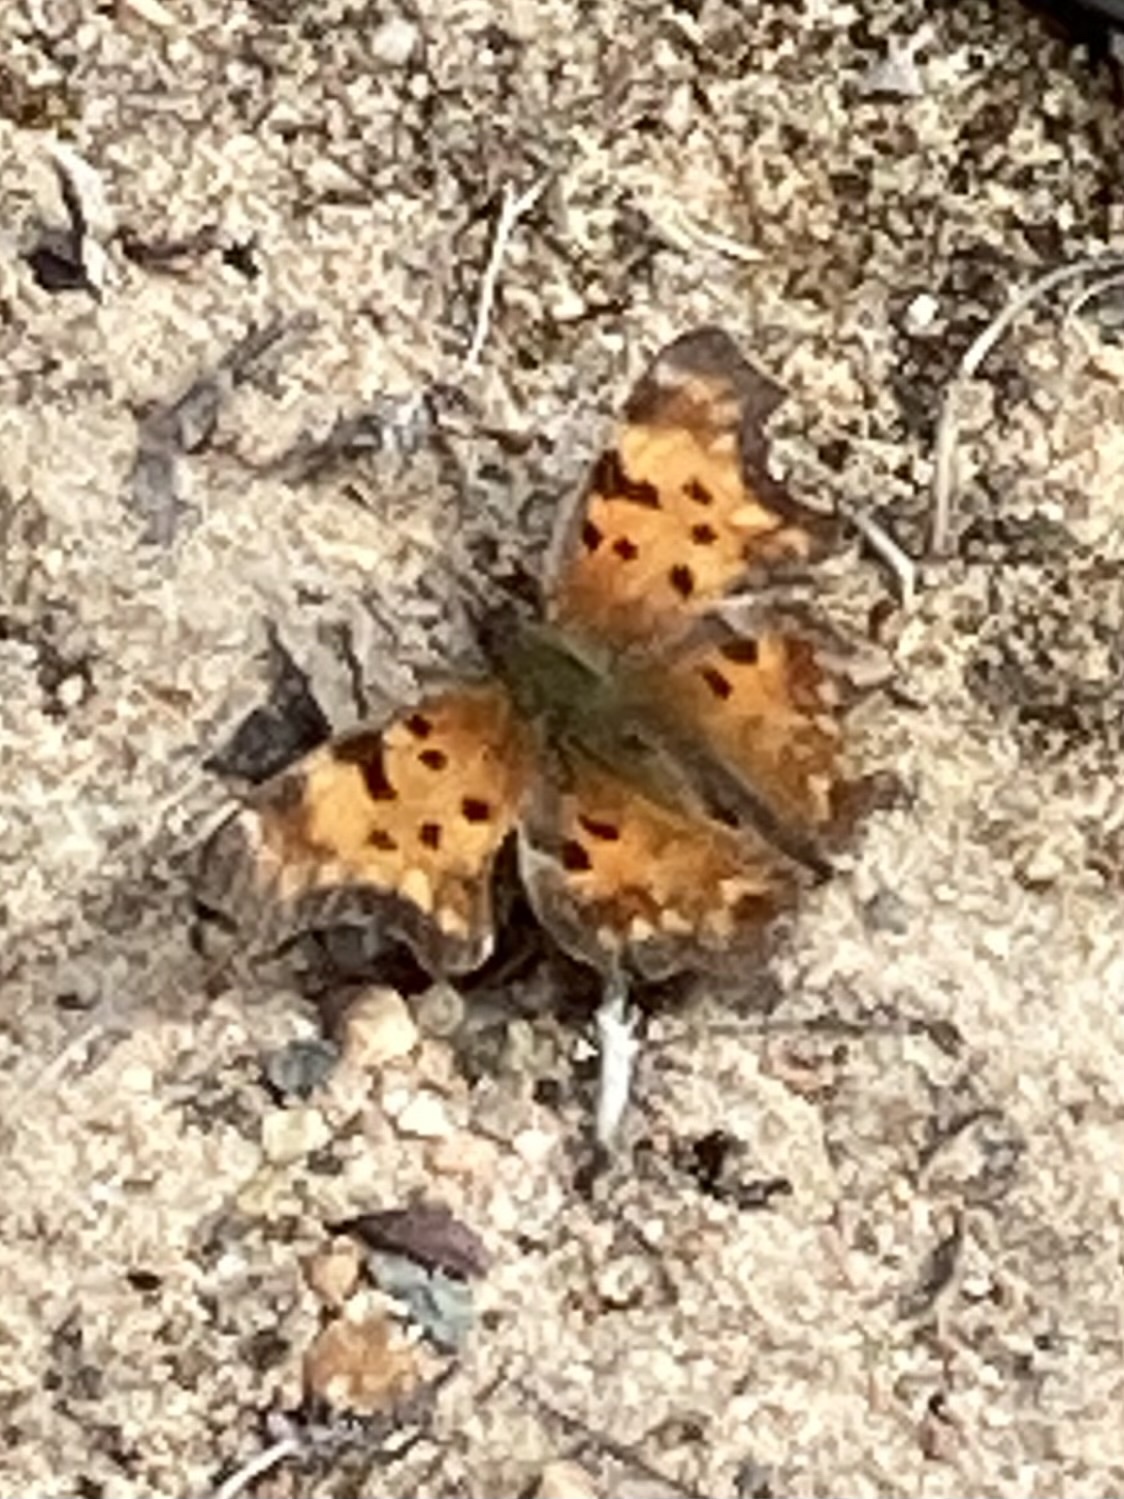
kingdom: Animalia
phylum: Arthropoda
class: Insecta
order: Lepidoptera
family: Nymphalidae
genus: Polygonia
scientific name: Polygonia faunus
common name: Green comma
